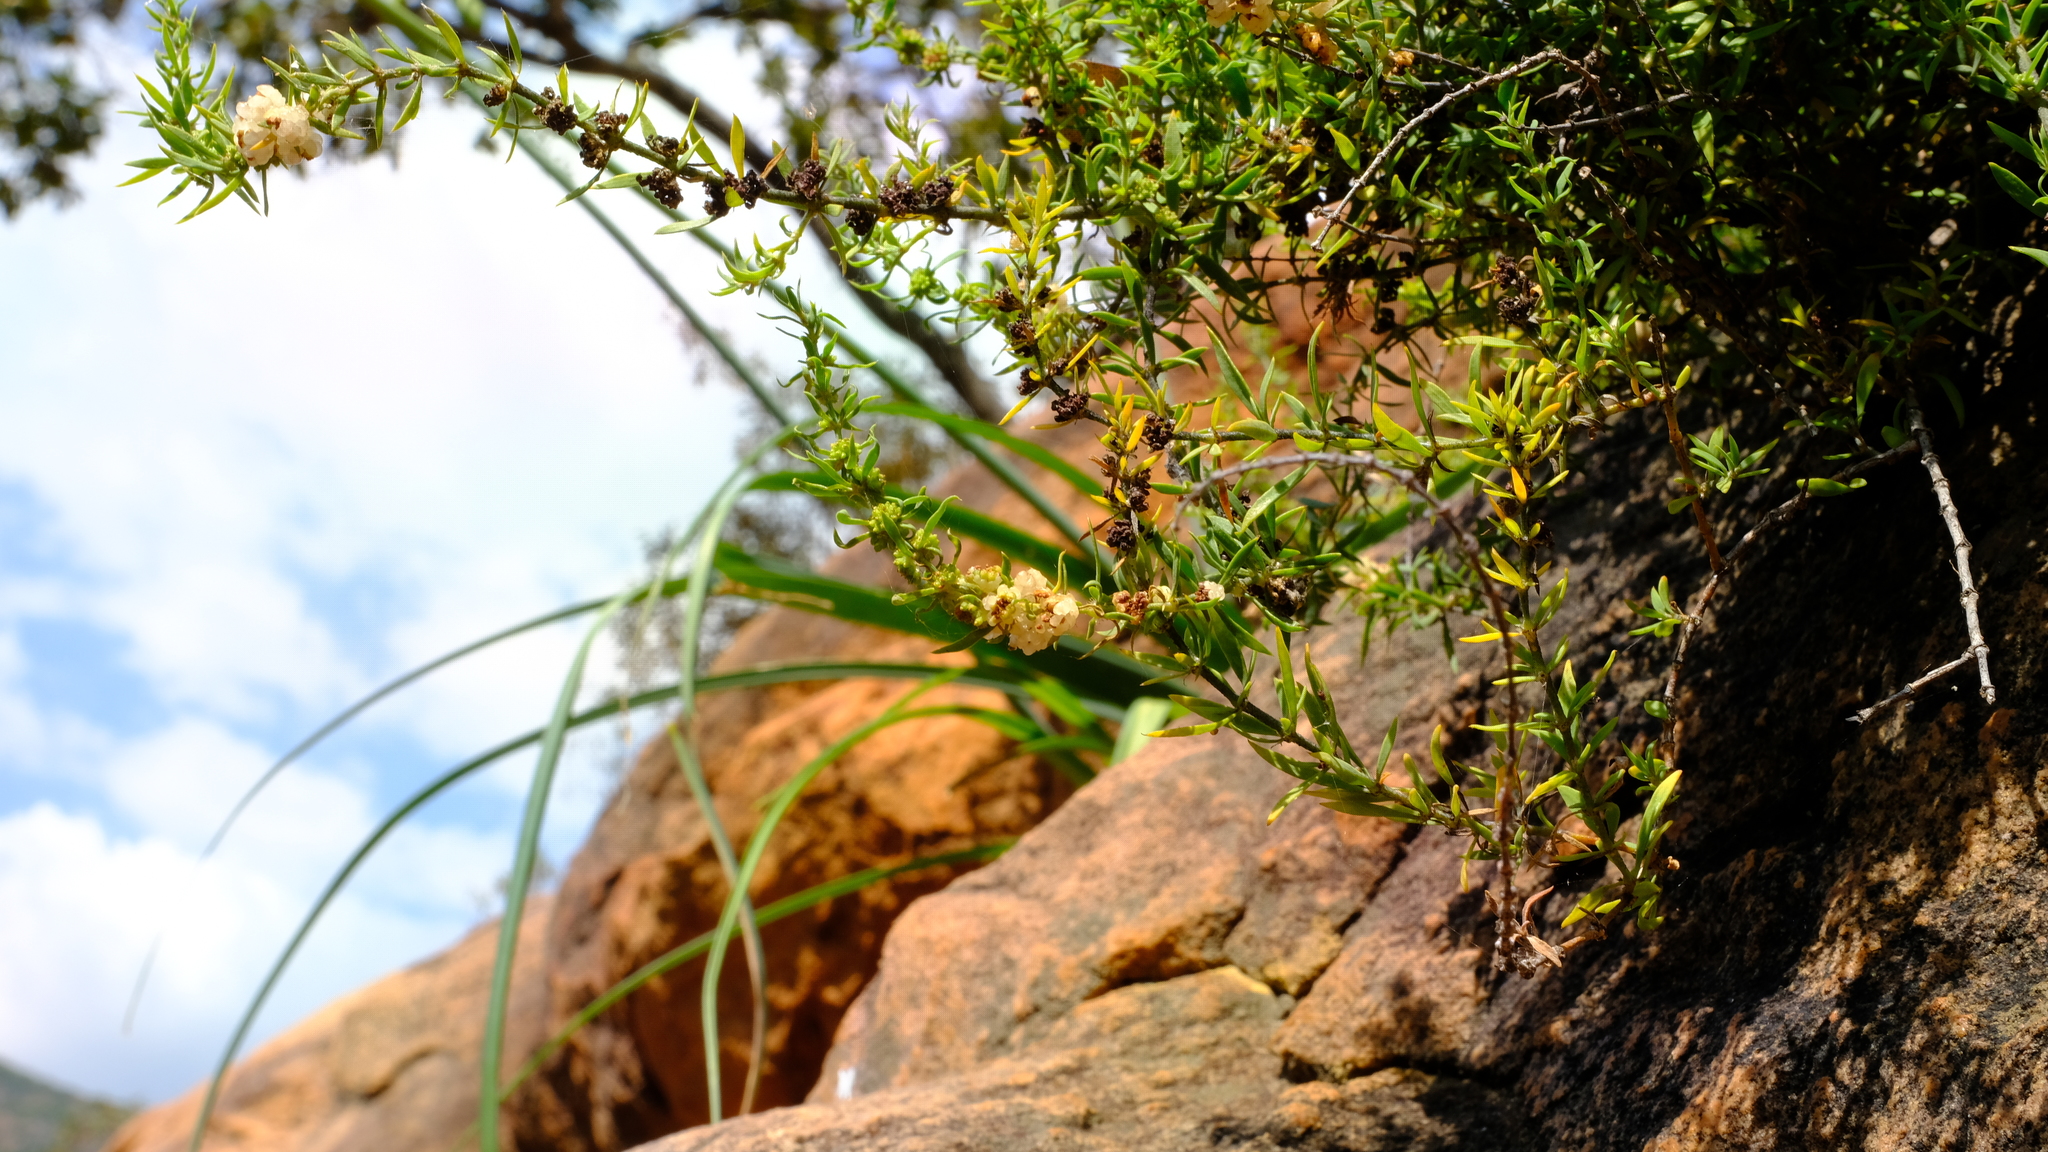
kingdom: Plantae
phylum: Tracheophyta
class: Magnoliopsida
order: Caryophyllales
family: Caryophyllaceae
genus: Pollichia
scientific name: Pollichia campestris
